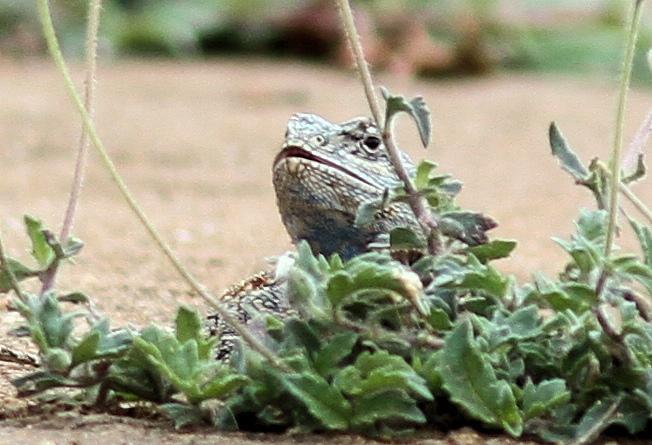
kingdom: Animalia
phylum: Chordata
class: Squamata
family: Agamidae
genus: Acanthocercus
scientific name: Acanthocercus atricollis
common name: Southern tree agama
